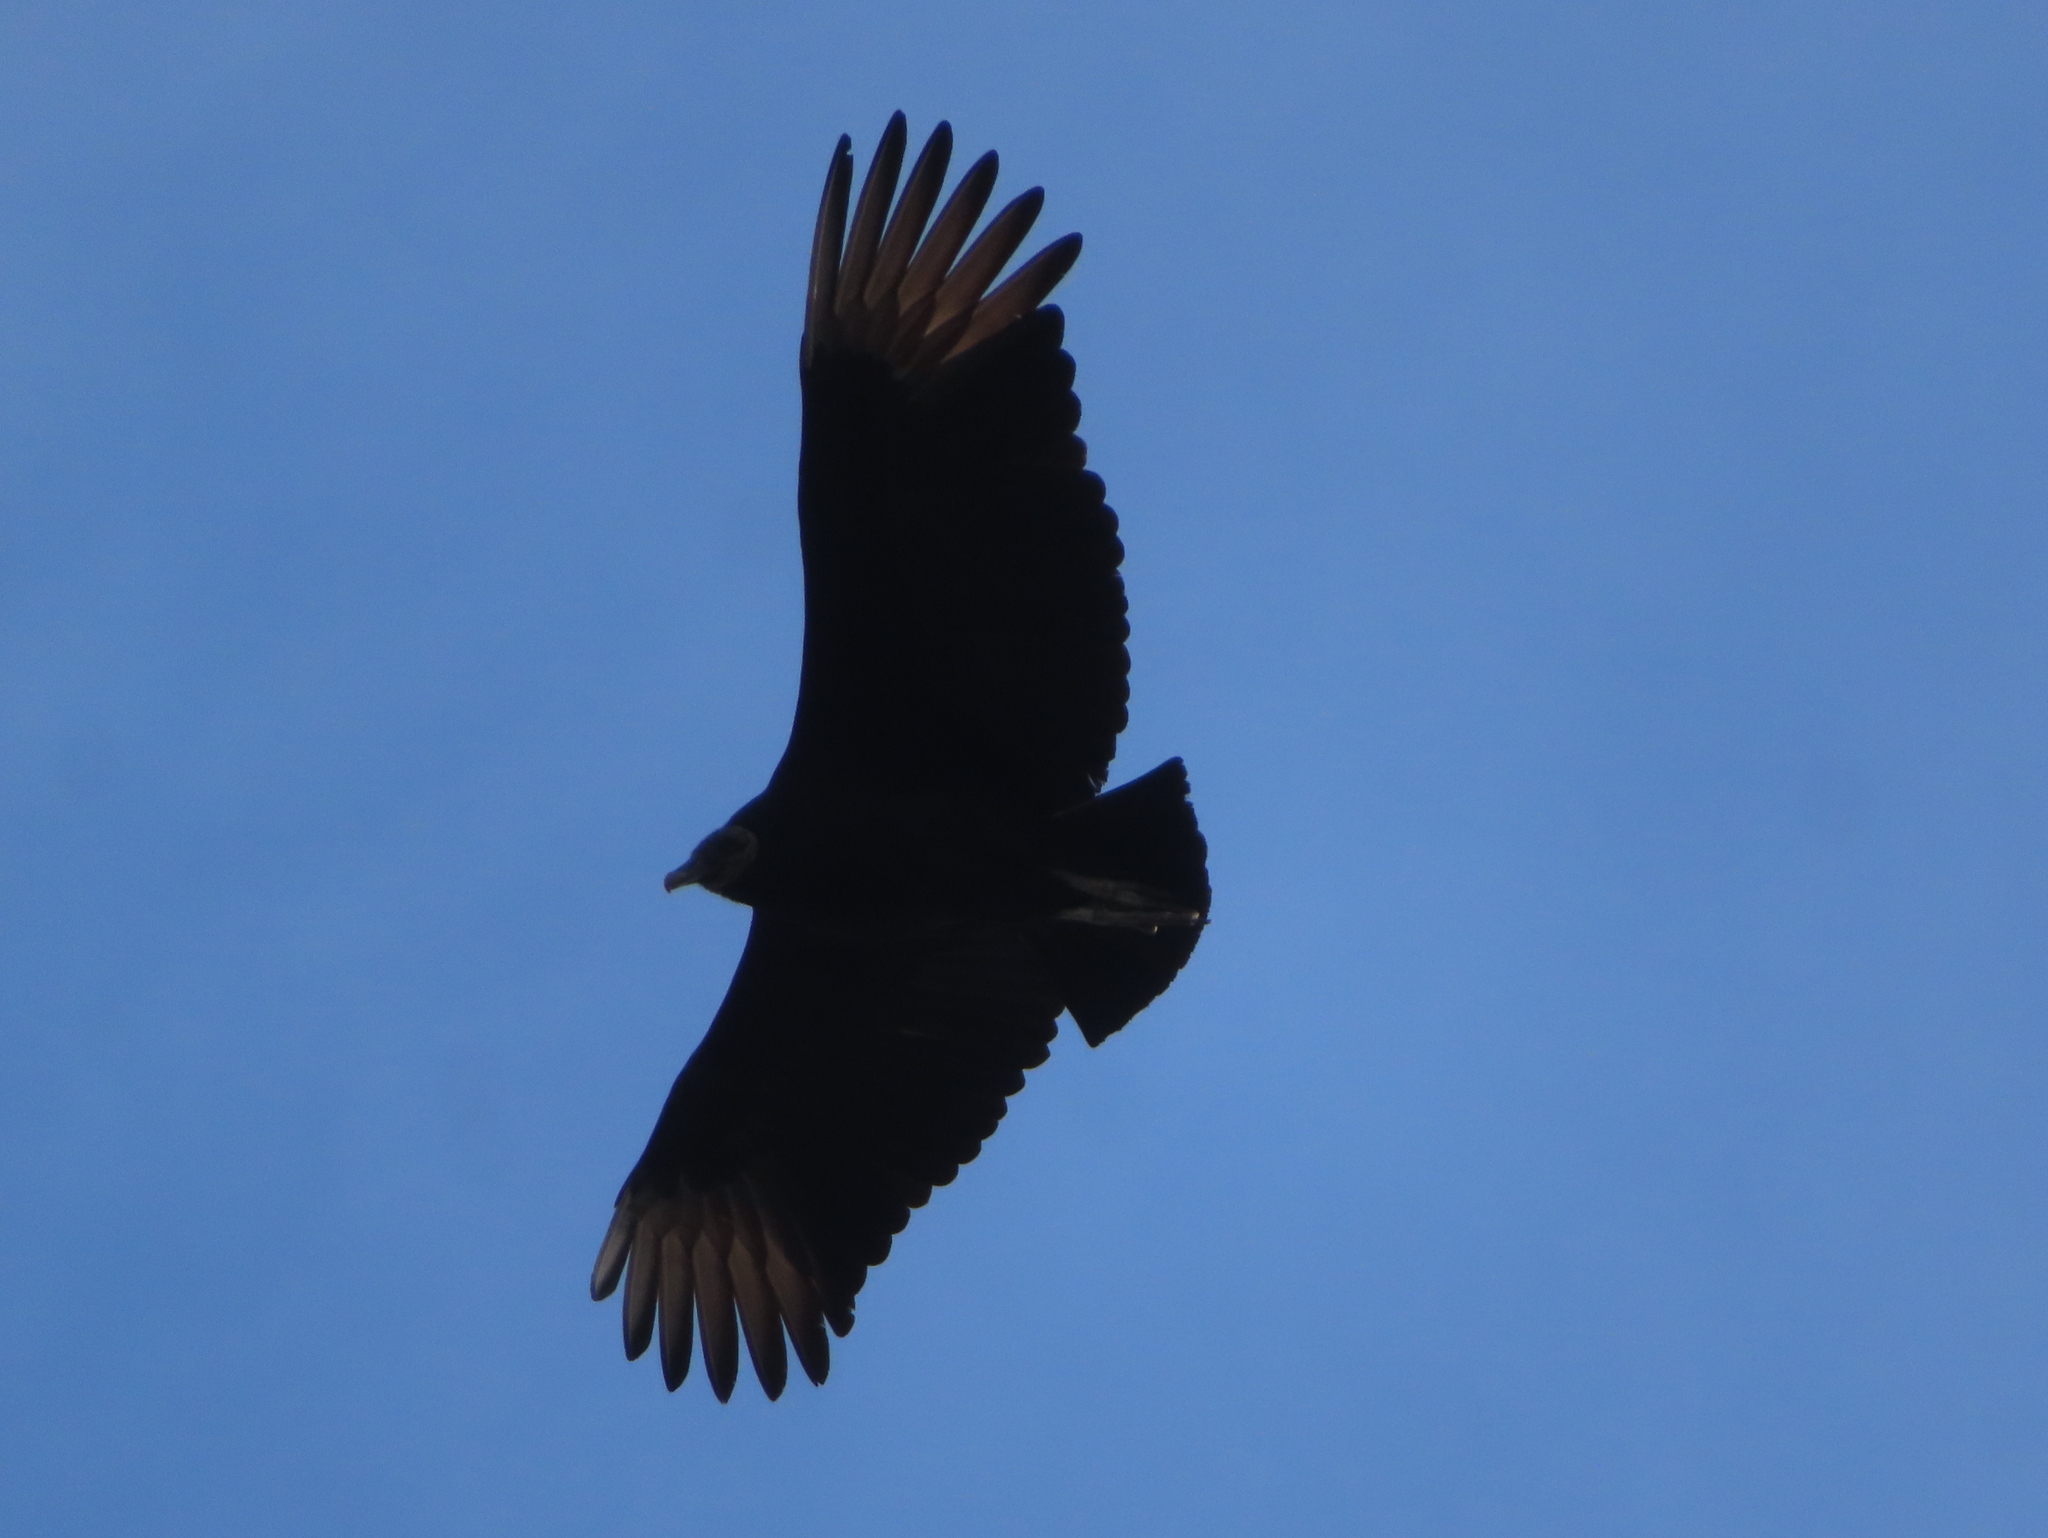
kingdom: Animalia
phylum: Chordata
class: Aves
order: Accipitriformes
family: Cathartidae
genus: Coragyps
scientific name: Coragyps atratus
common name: Black vulture
